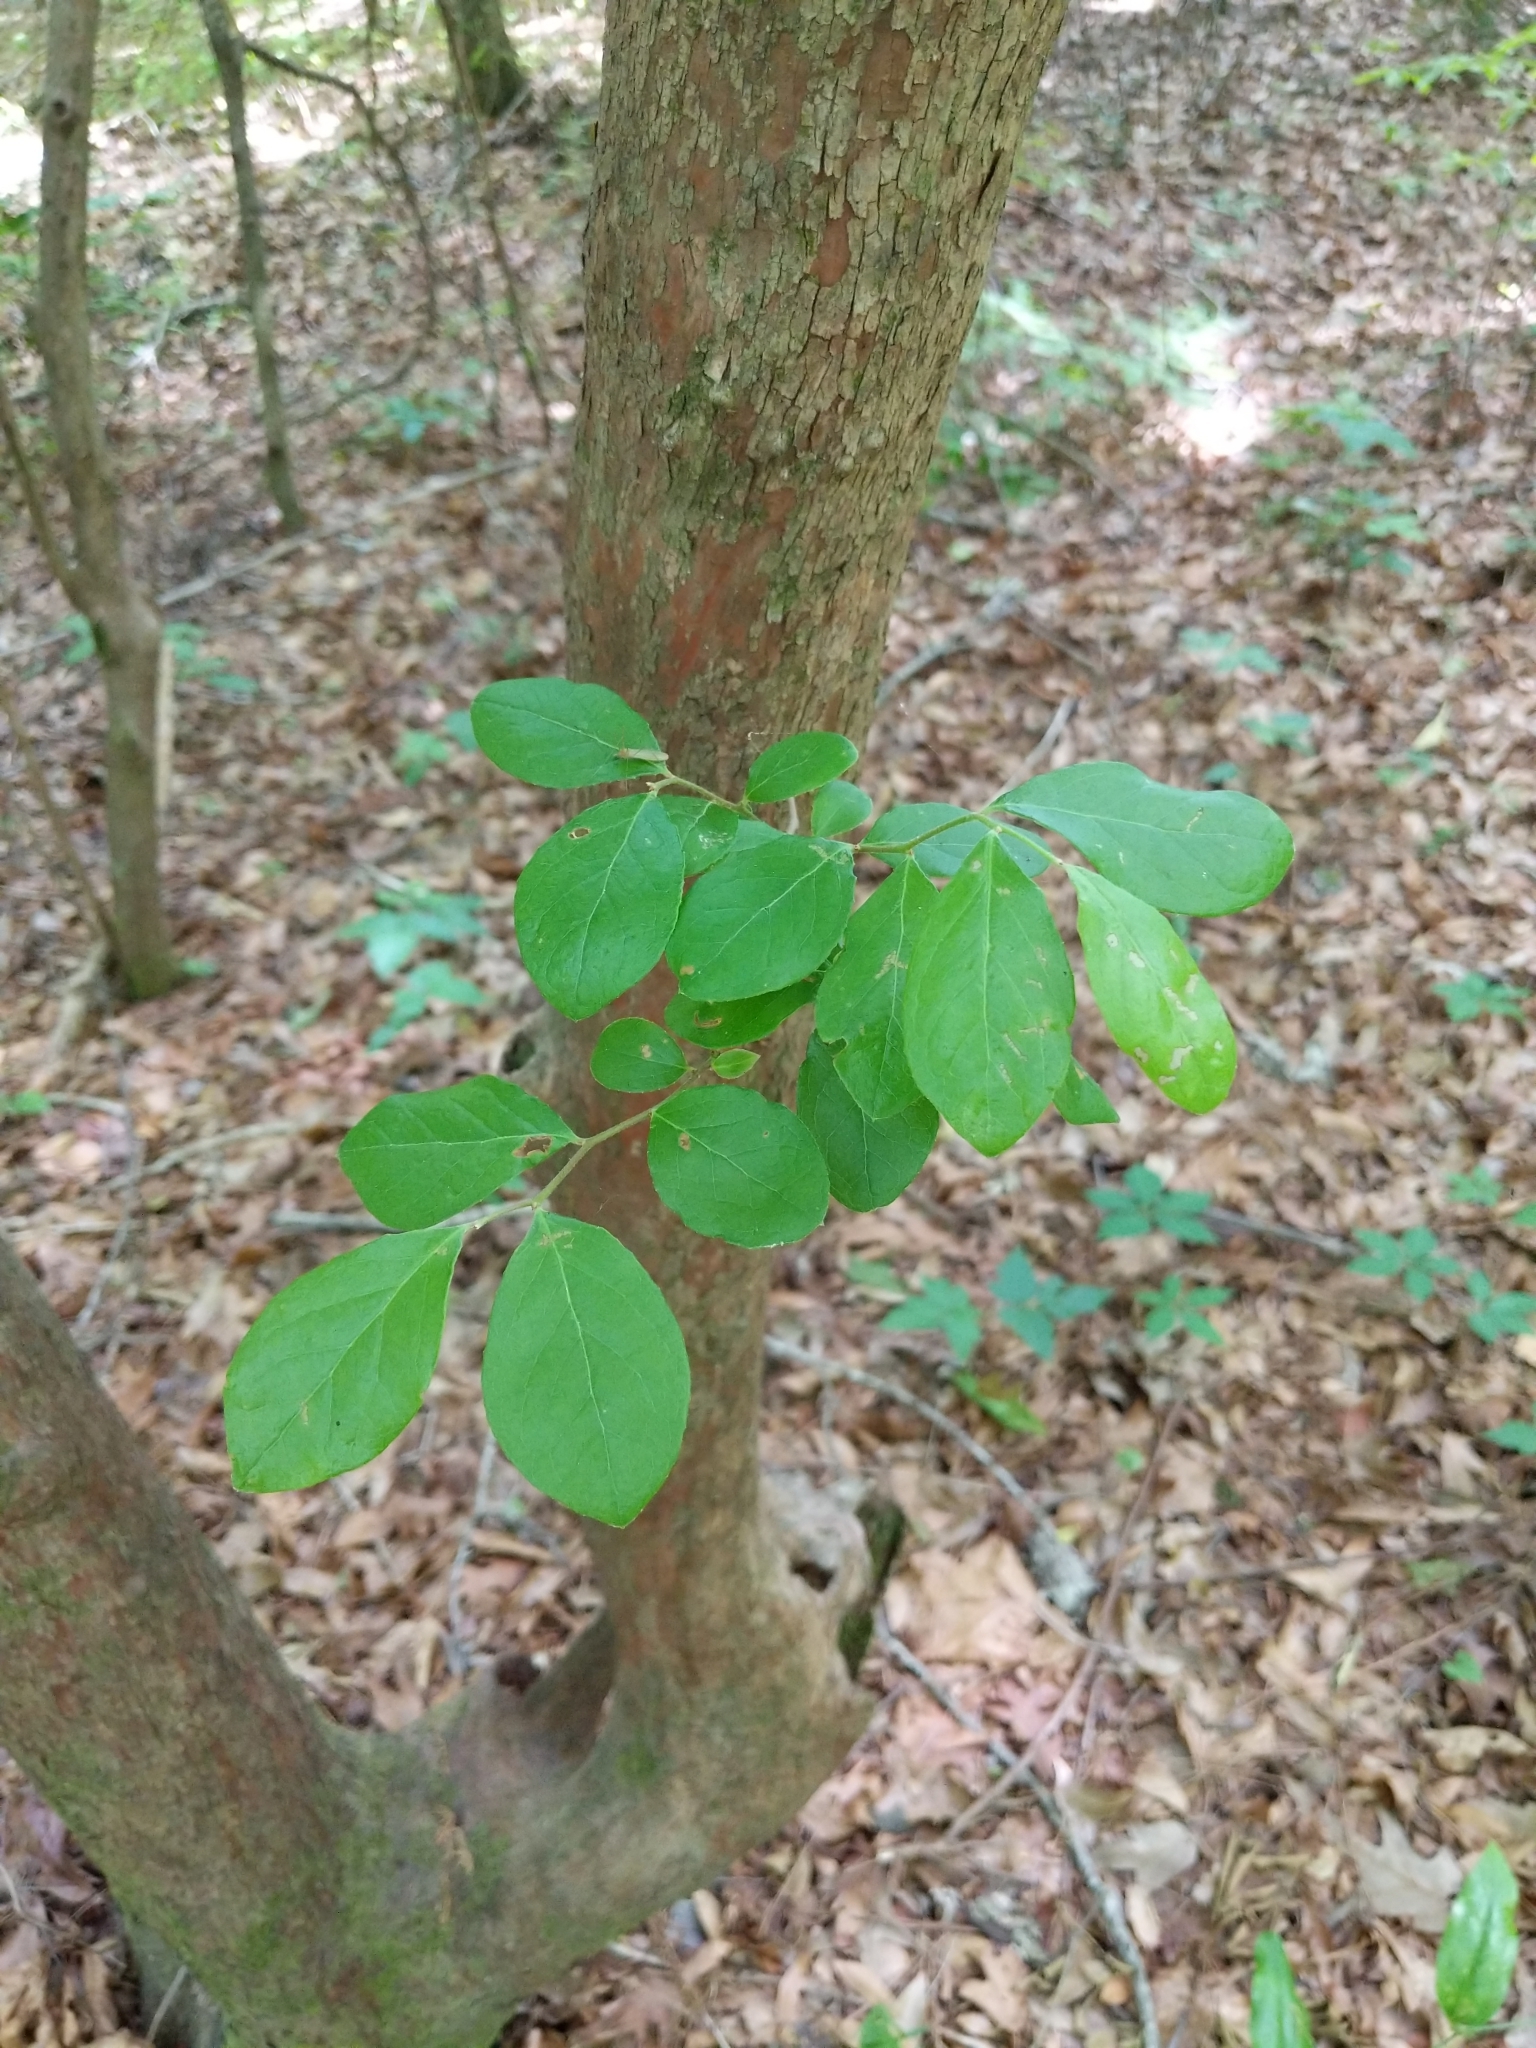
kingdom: Plantae
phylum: Tracheophyta
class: Magnoliopsida
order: Ericales
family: Ericaceae
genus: Vaccinium
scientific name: Vaccinium arboreum
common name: Farkleberry
